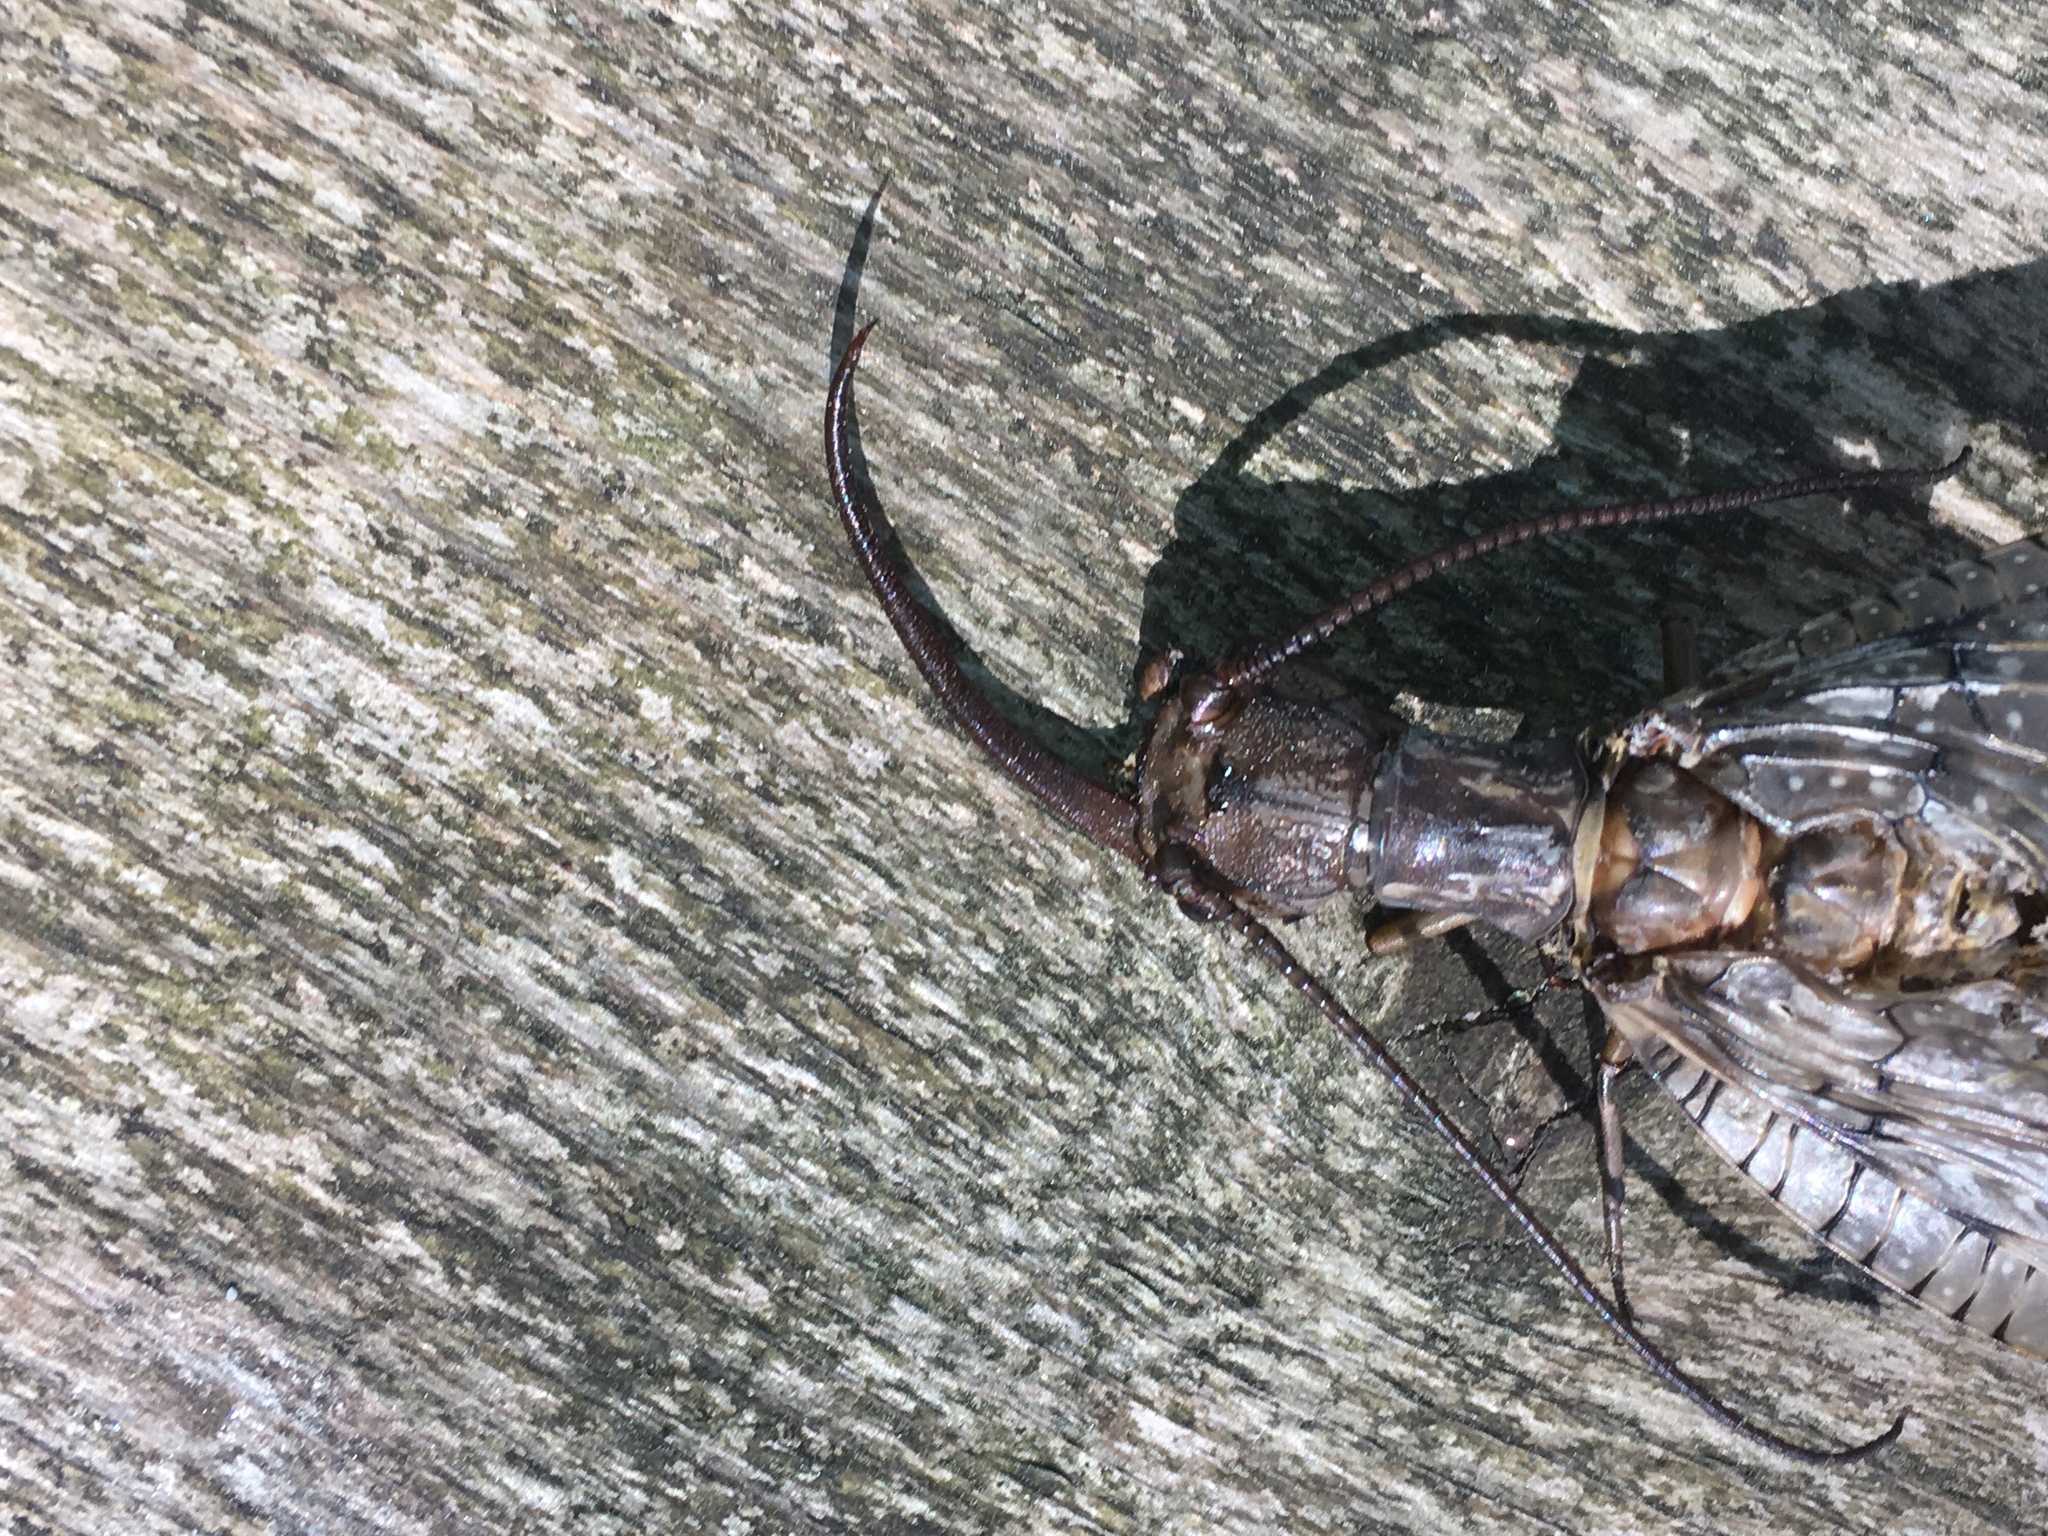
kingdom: Animalia
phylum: Arthropoda
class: Insecta
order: Megaloptera
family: Corydalidae
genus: Corydalus
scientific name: Corydalus cornutus
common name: Dobsonfly
